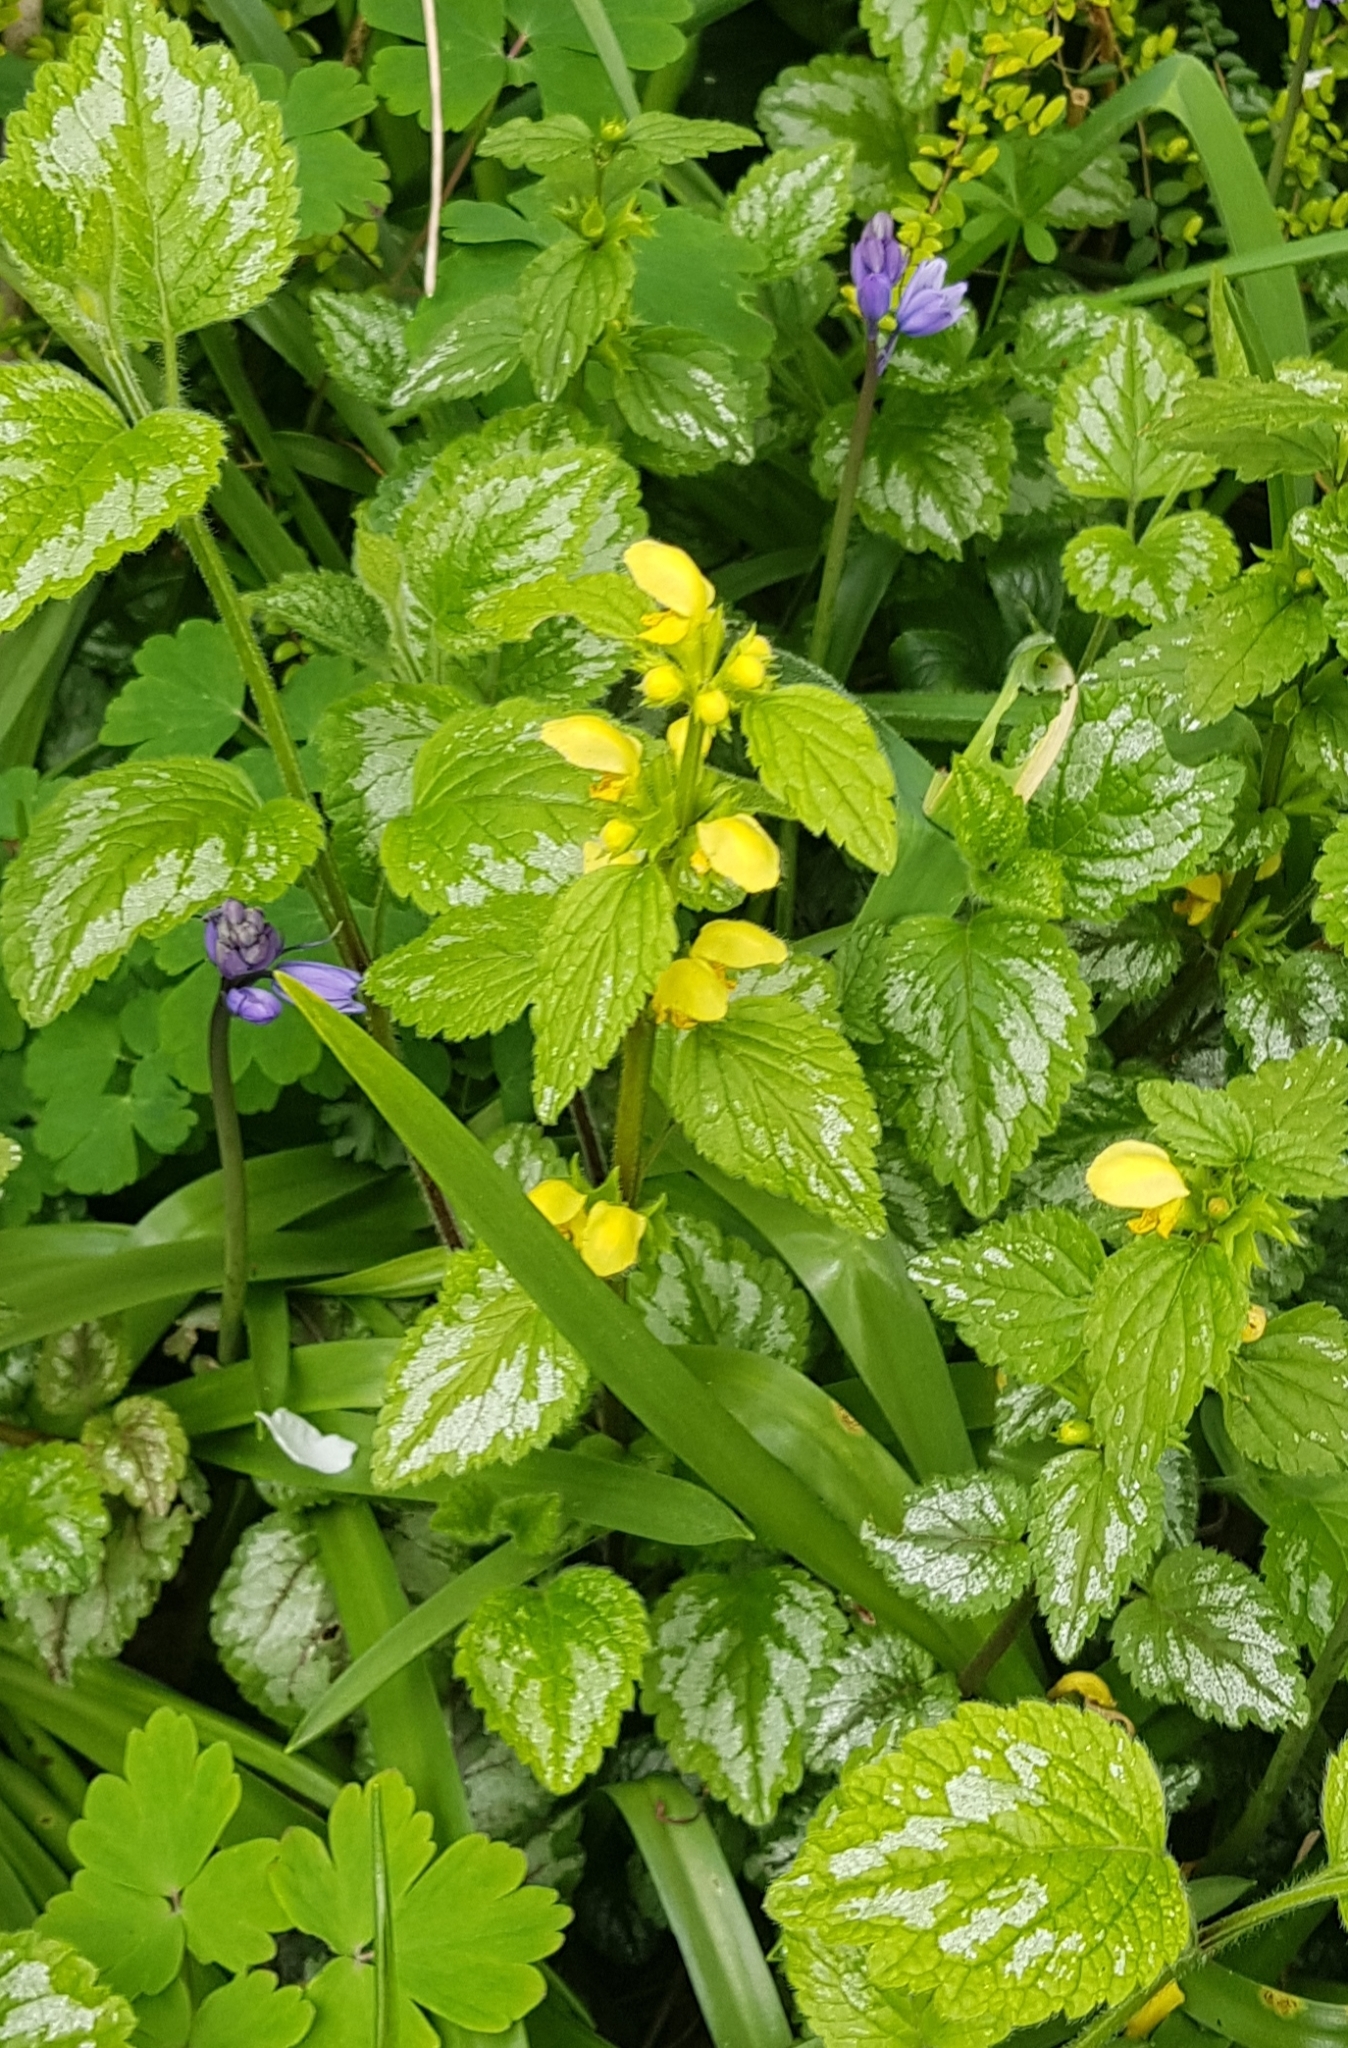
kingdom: Plantae
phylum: Tracheophyta
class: Magnoliopsida
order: Lamiales
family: Lamiaceae
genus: Lamium
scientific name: Lamium galeobdolon
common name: Yellow archangel
